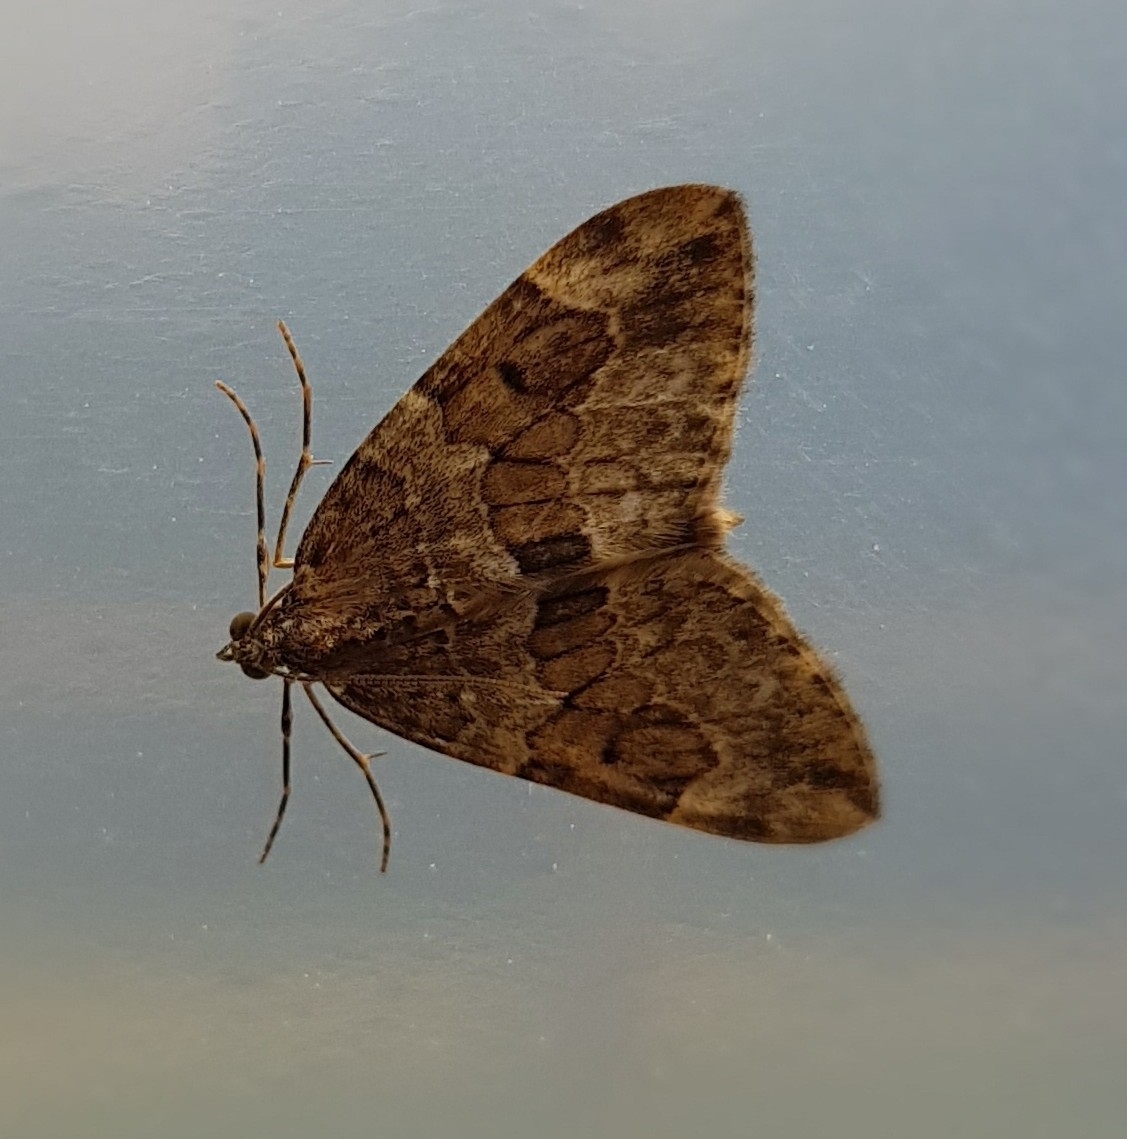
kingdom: Animalia
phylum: Arthropoda
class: Insecta
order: Lepidoptera
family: Geometridae
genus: Thera
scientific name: Thera britannica
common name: Spruce carpet
